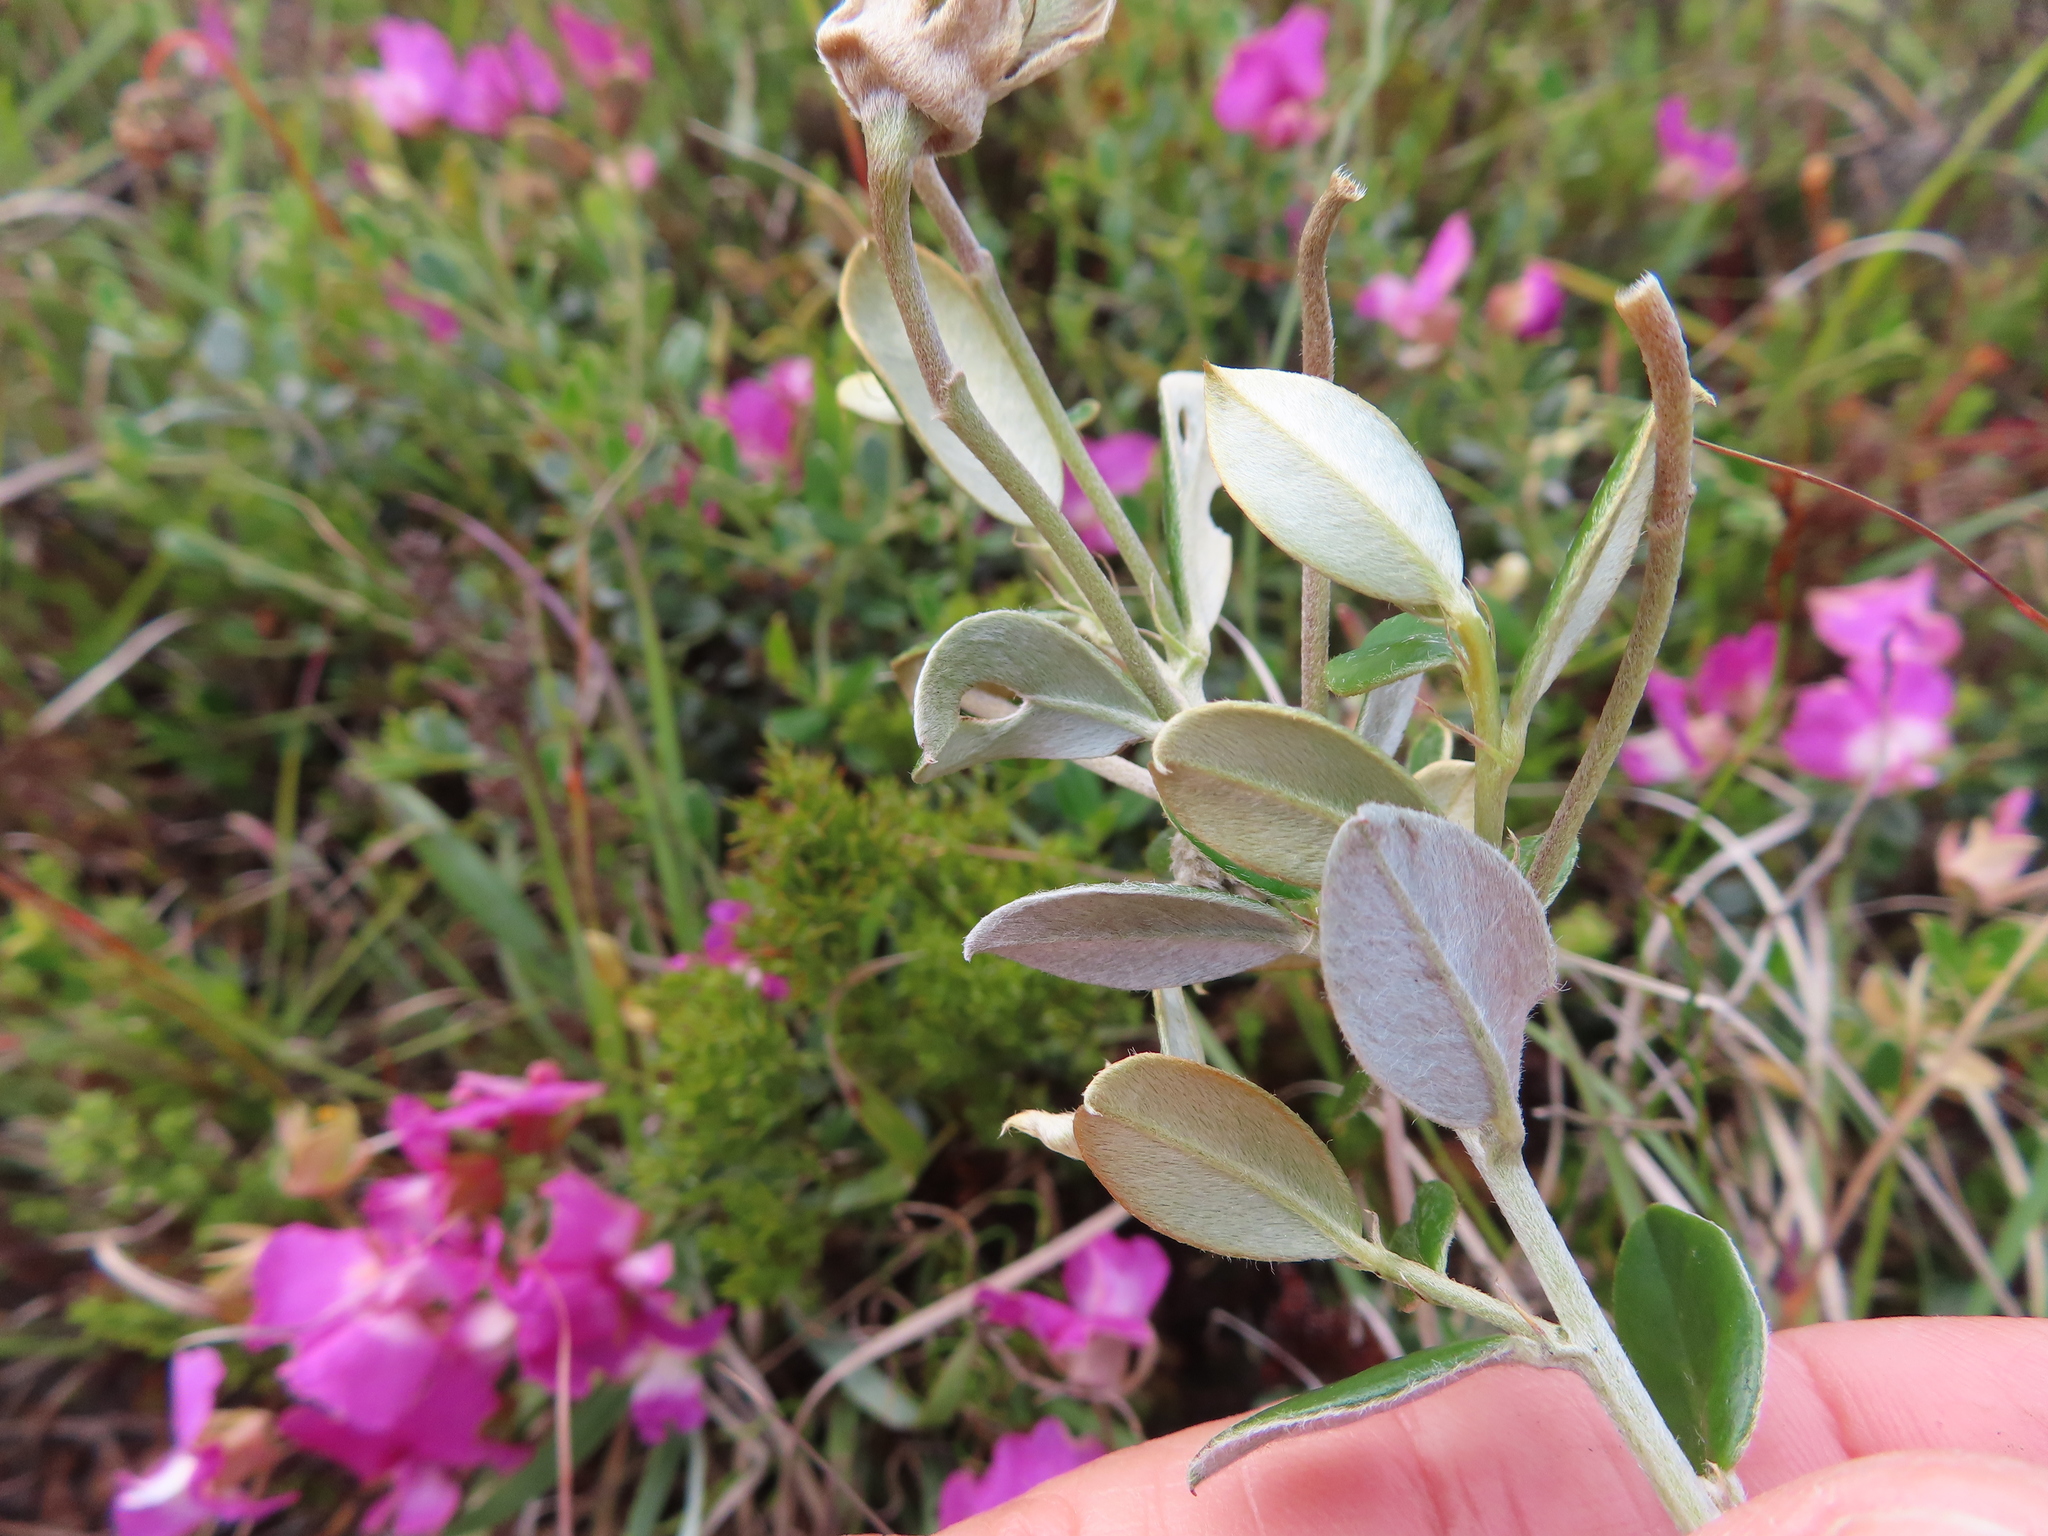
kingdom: Plantae
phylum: Tracheophyta
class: Magnoliopsida
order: Fabales
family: Fabaceae
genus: Podalyria
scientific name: Podalyria biflora
